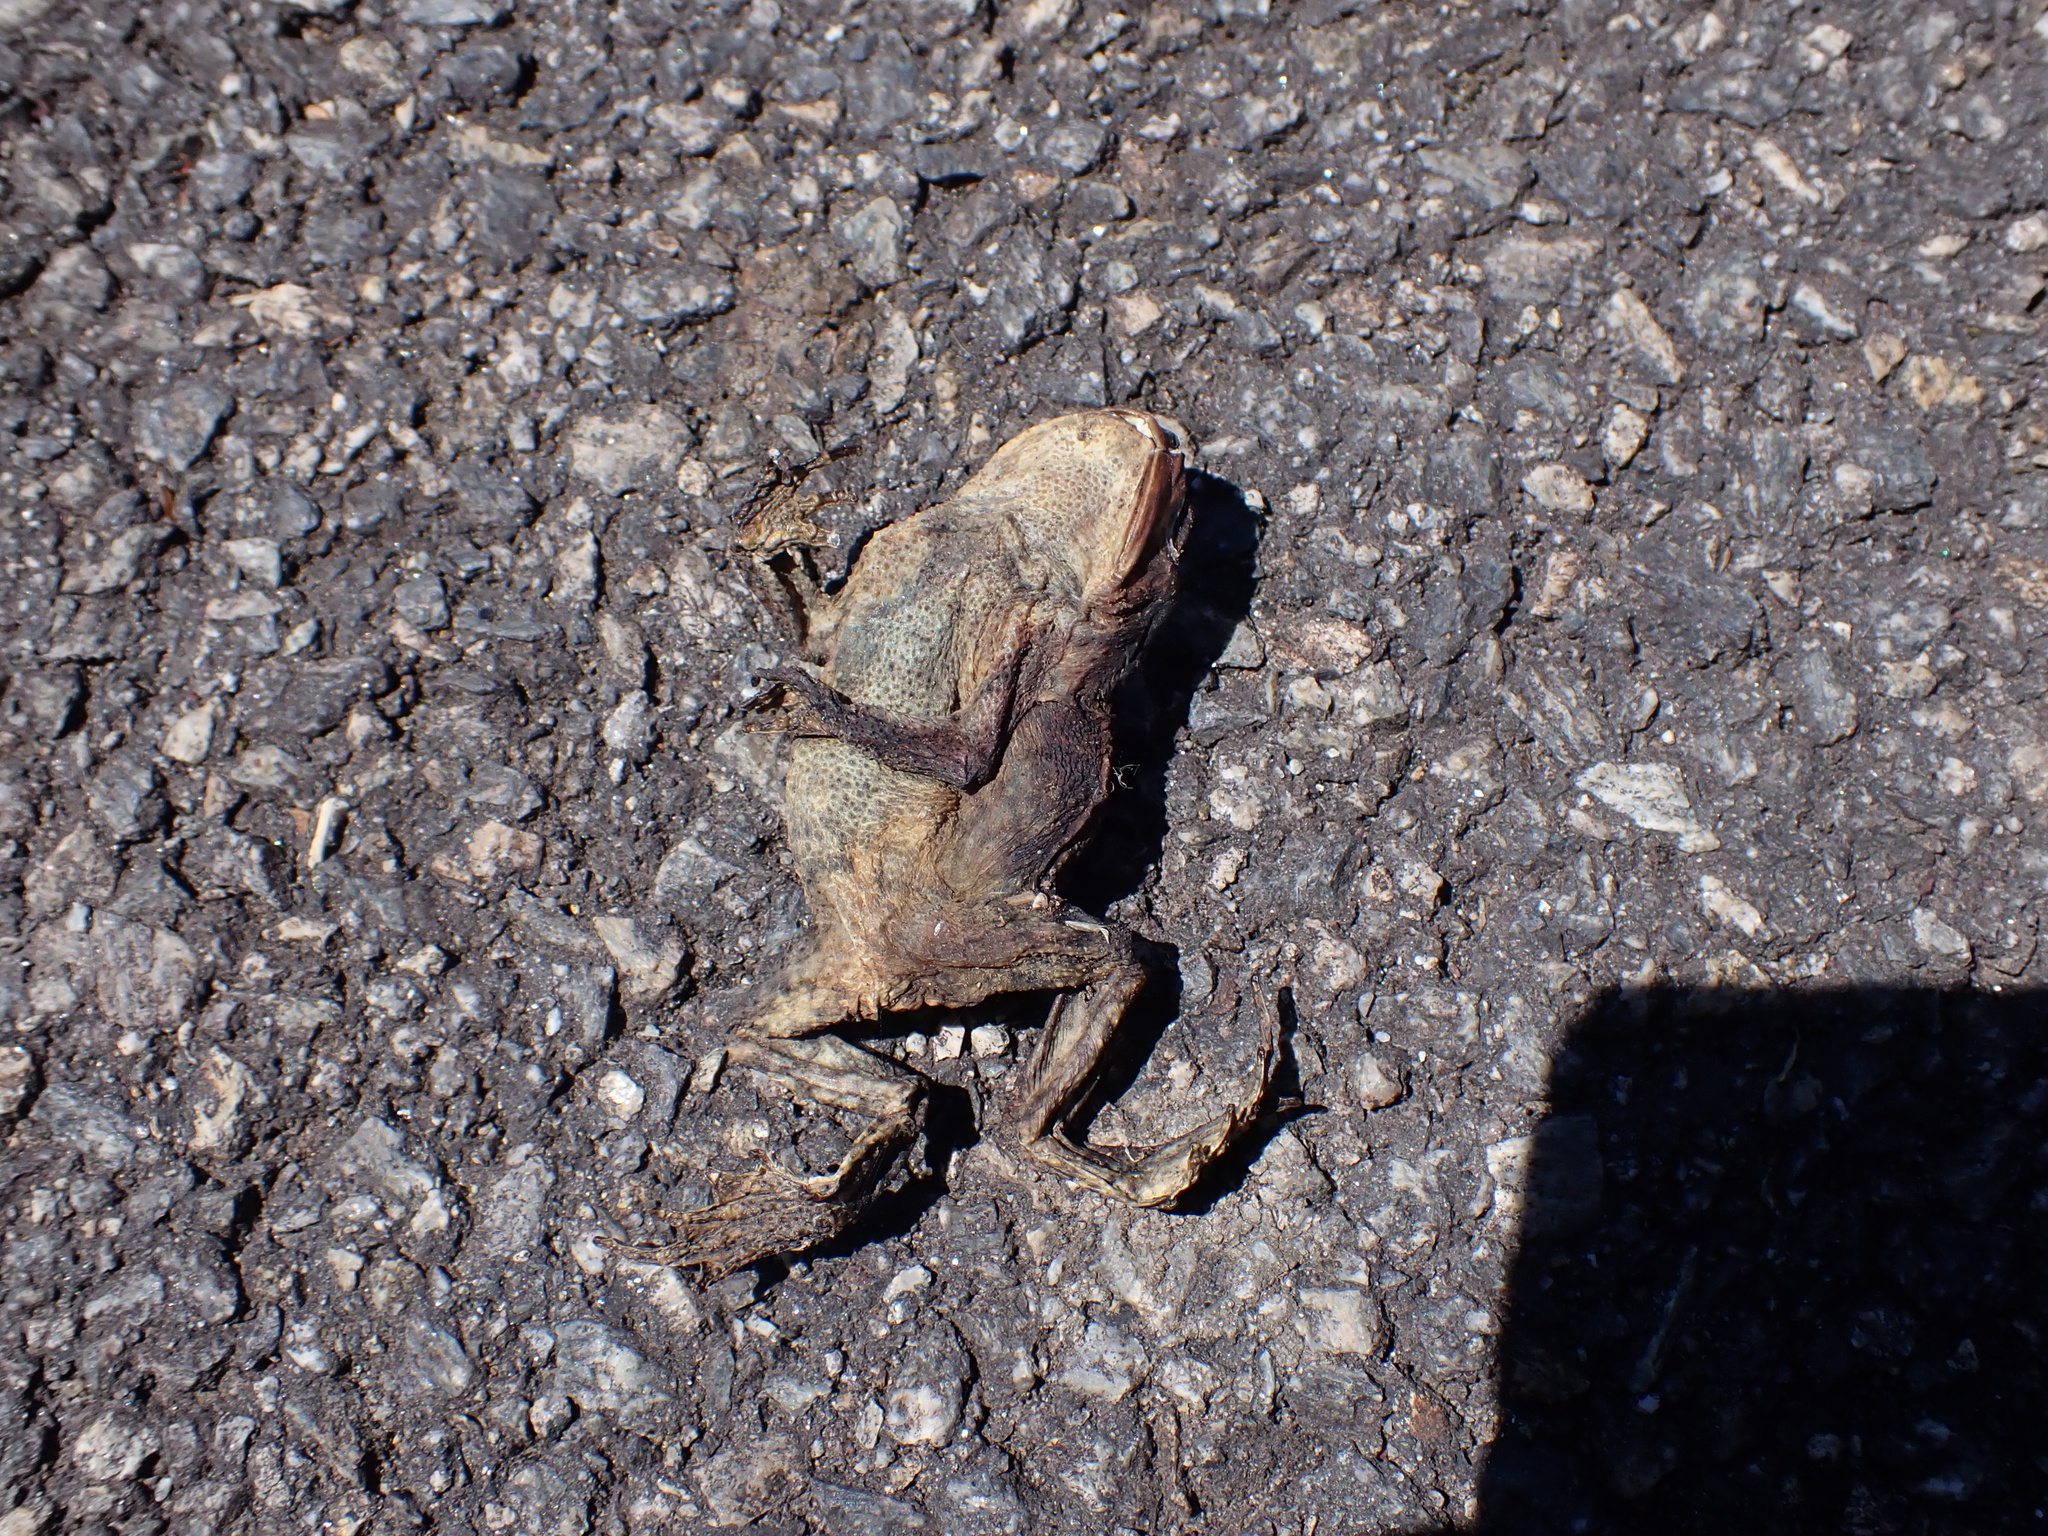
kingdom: Animalia
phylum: Chordata
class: Amphibia
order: Anura
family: Bufonidae
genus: Bufo
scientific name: Bufo spinosus
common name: Western common toad
